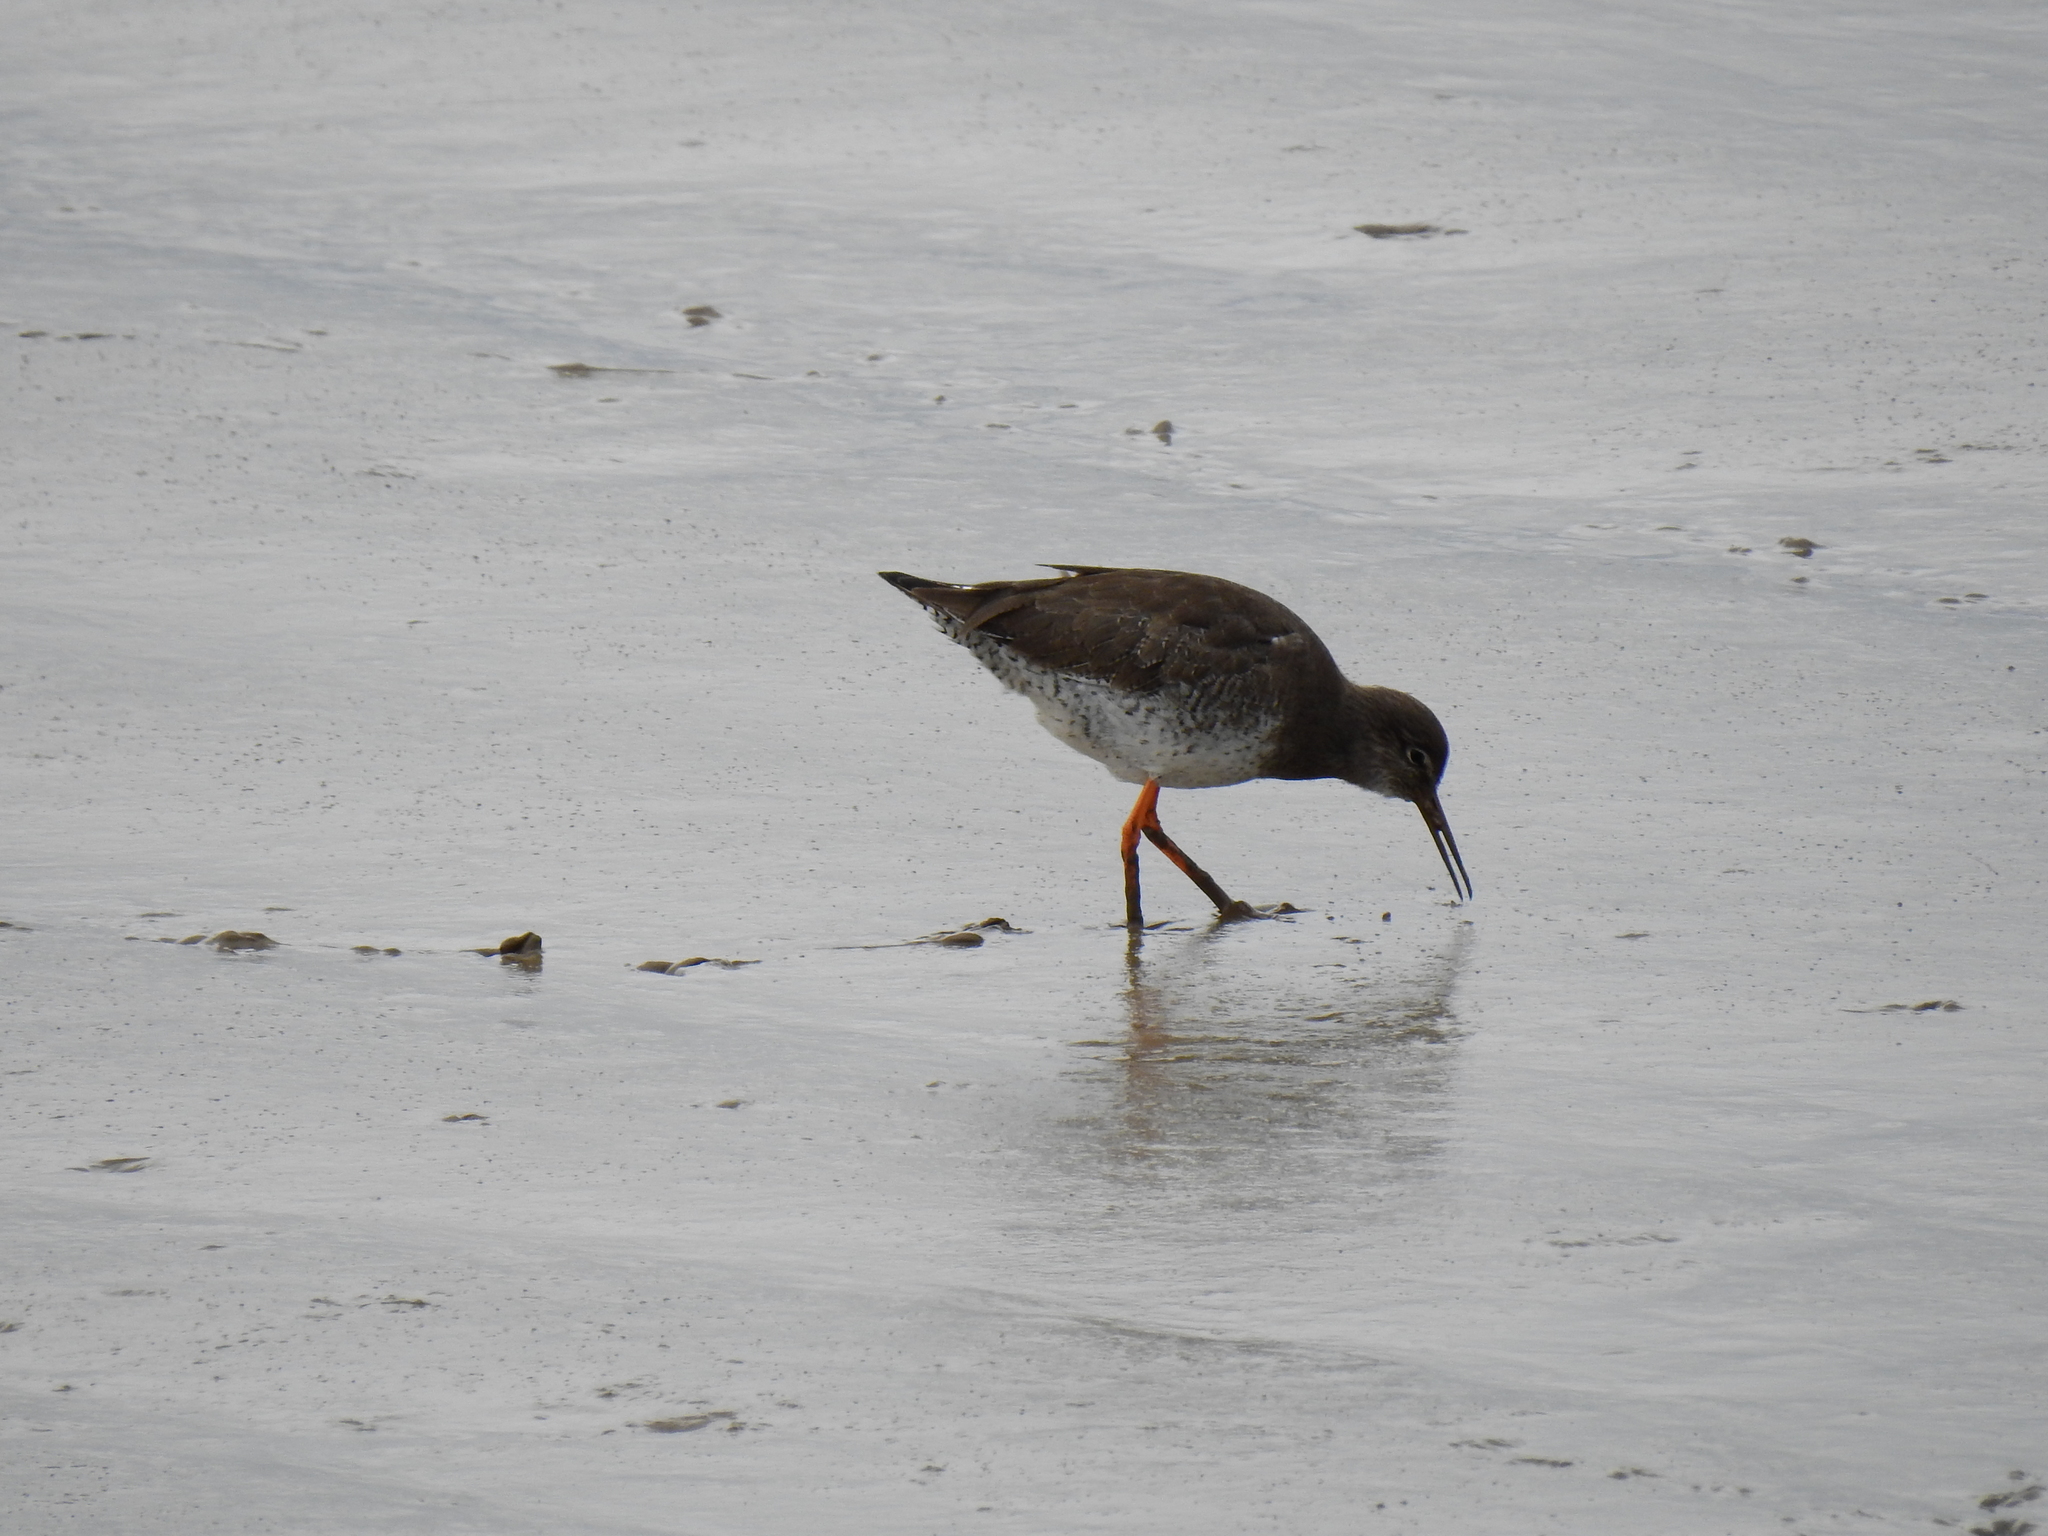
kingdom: Animalia
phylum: Chordata
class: Aves
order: Charadriiformes
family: Scolopacidae
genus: Tringa
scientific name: Tringa totanus
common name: Common redshank
